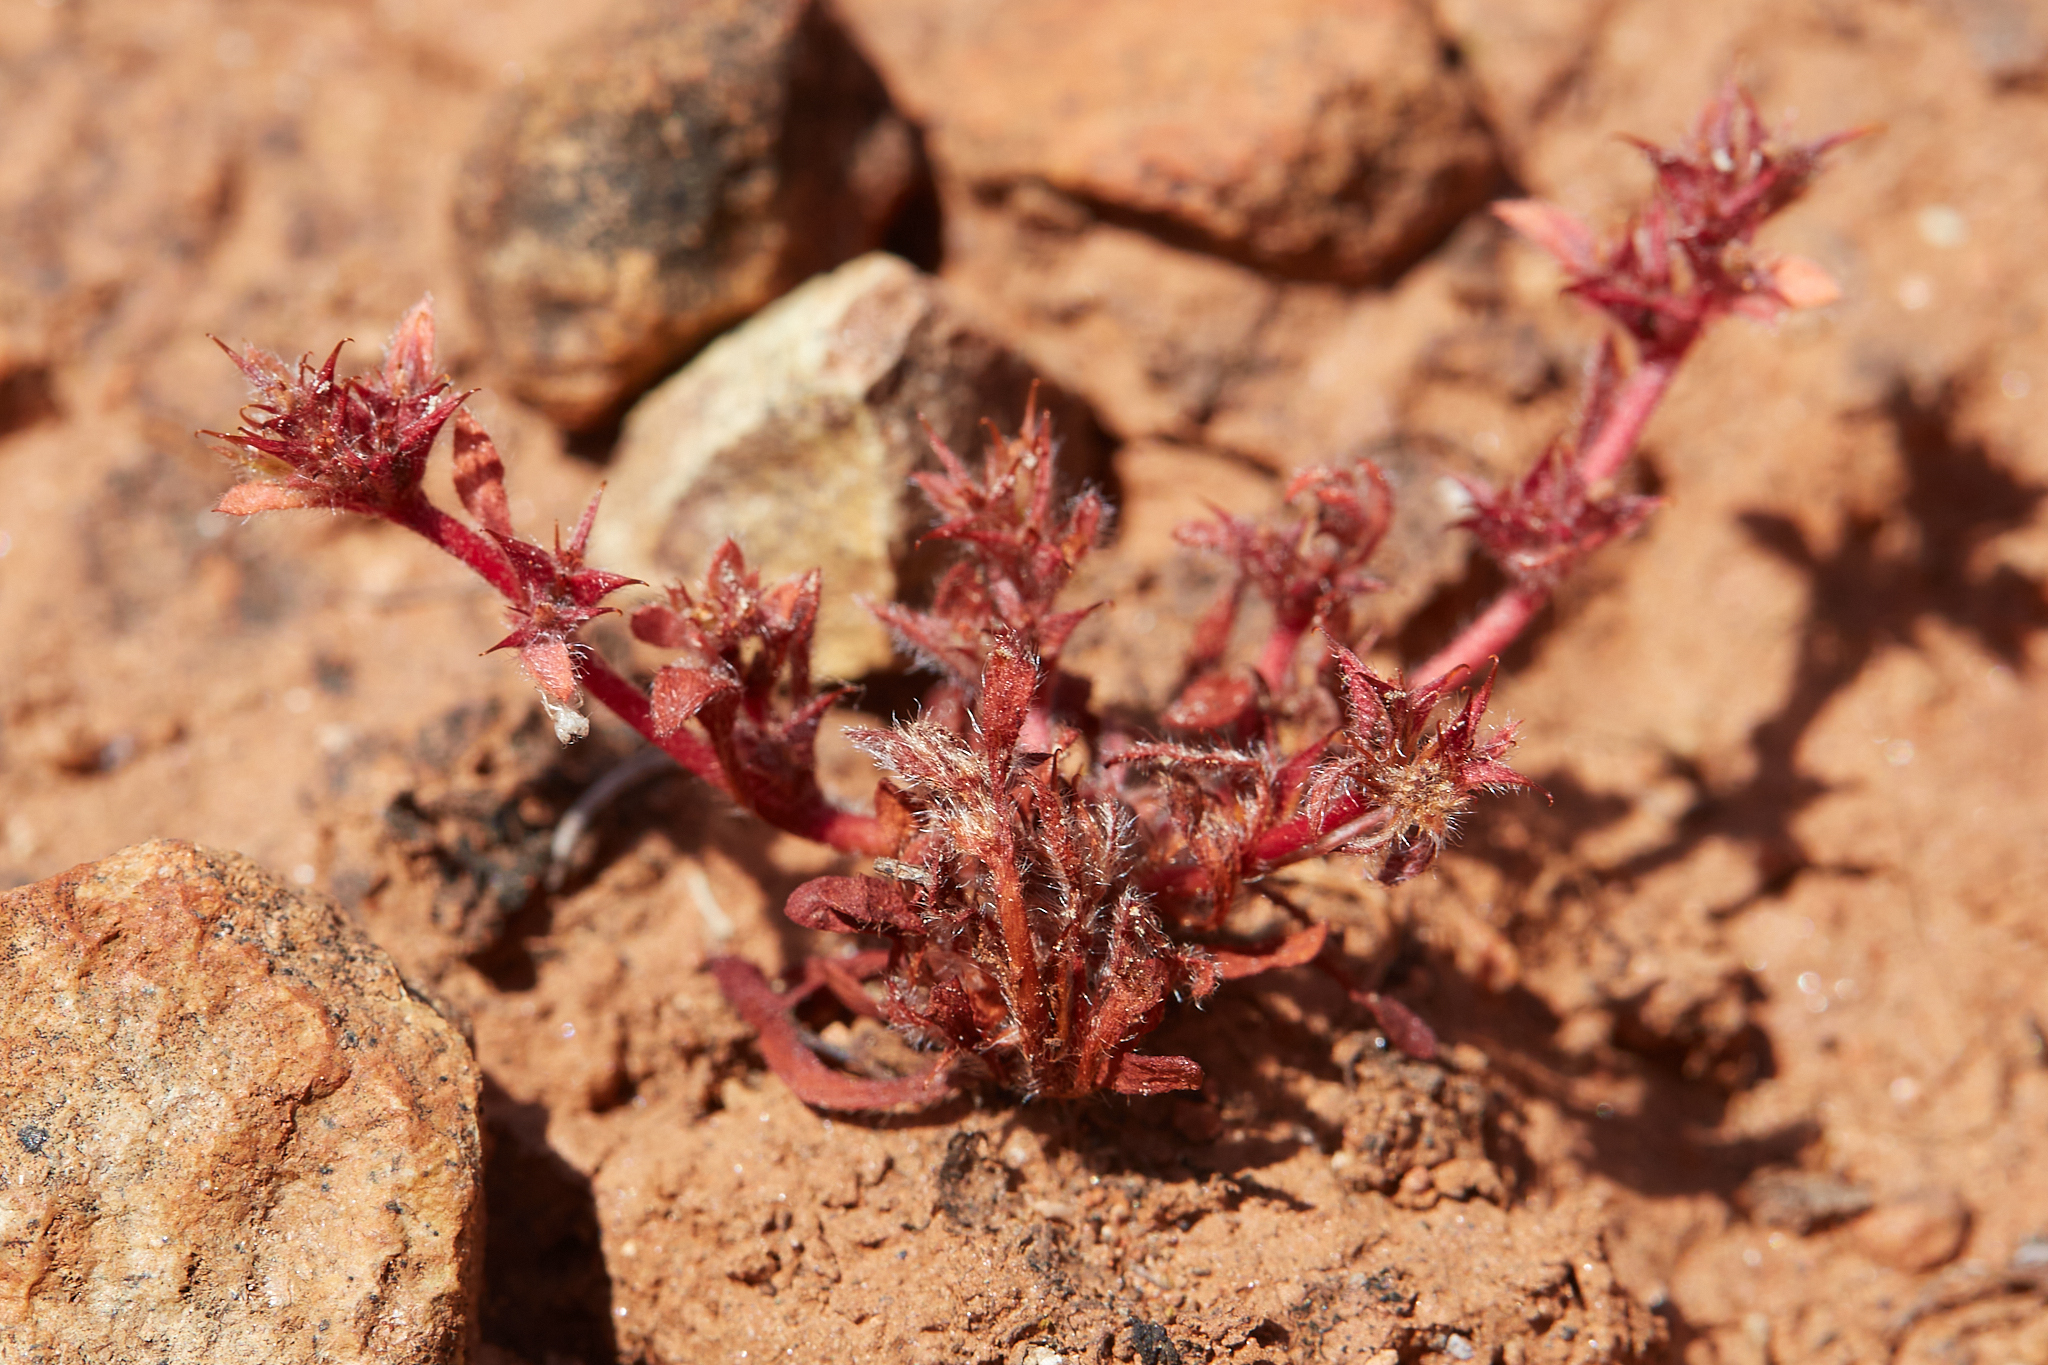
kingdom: Plantae
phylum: Tracheophyta
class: Magnoliopsida
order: Caryophyllales
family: Polygonaceae
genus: Chorizanthe
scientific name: Chorizanthe polygonoides
